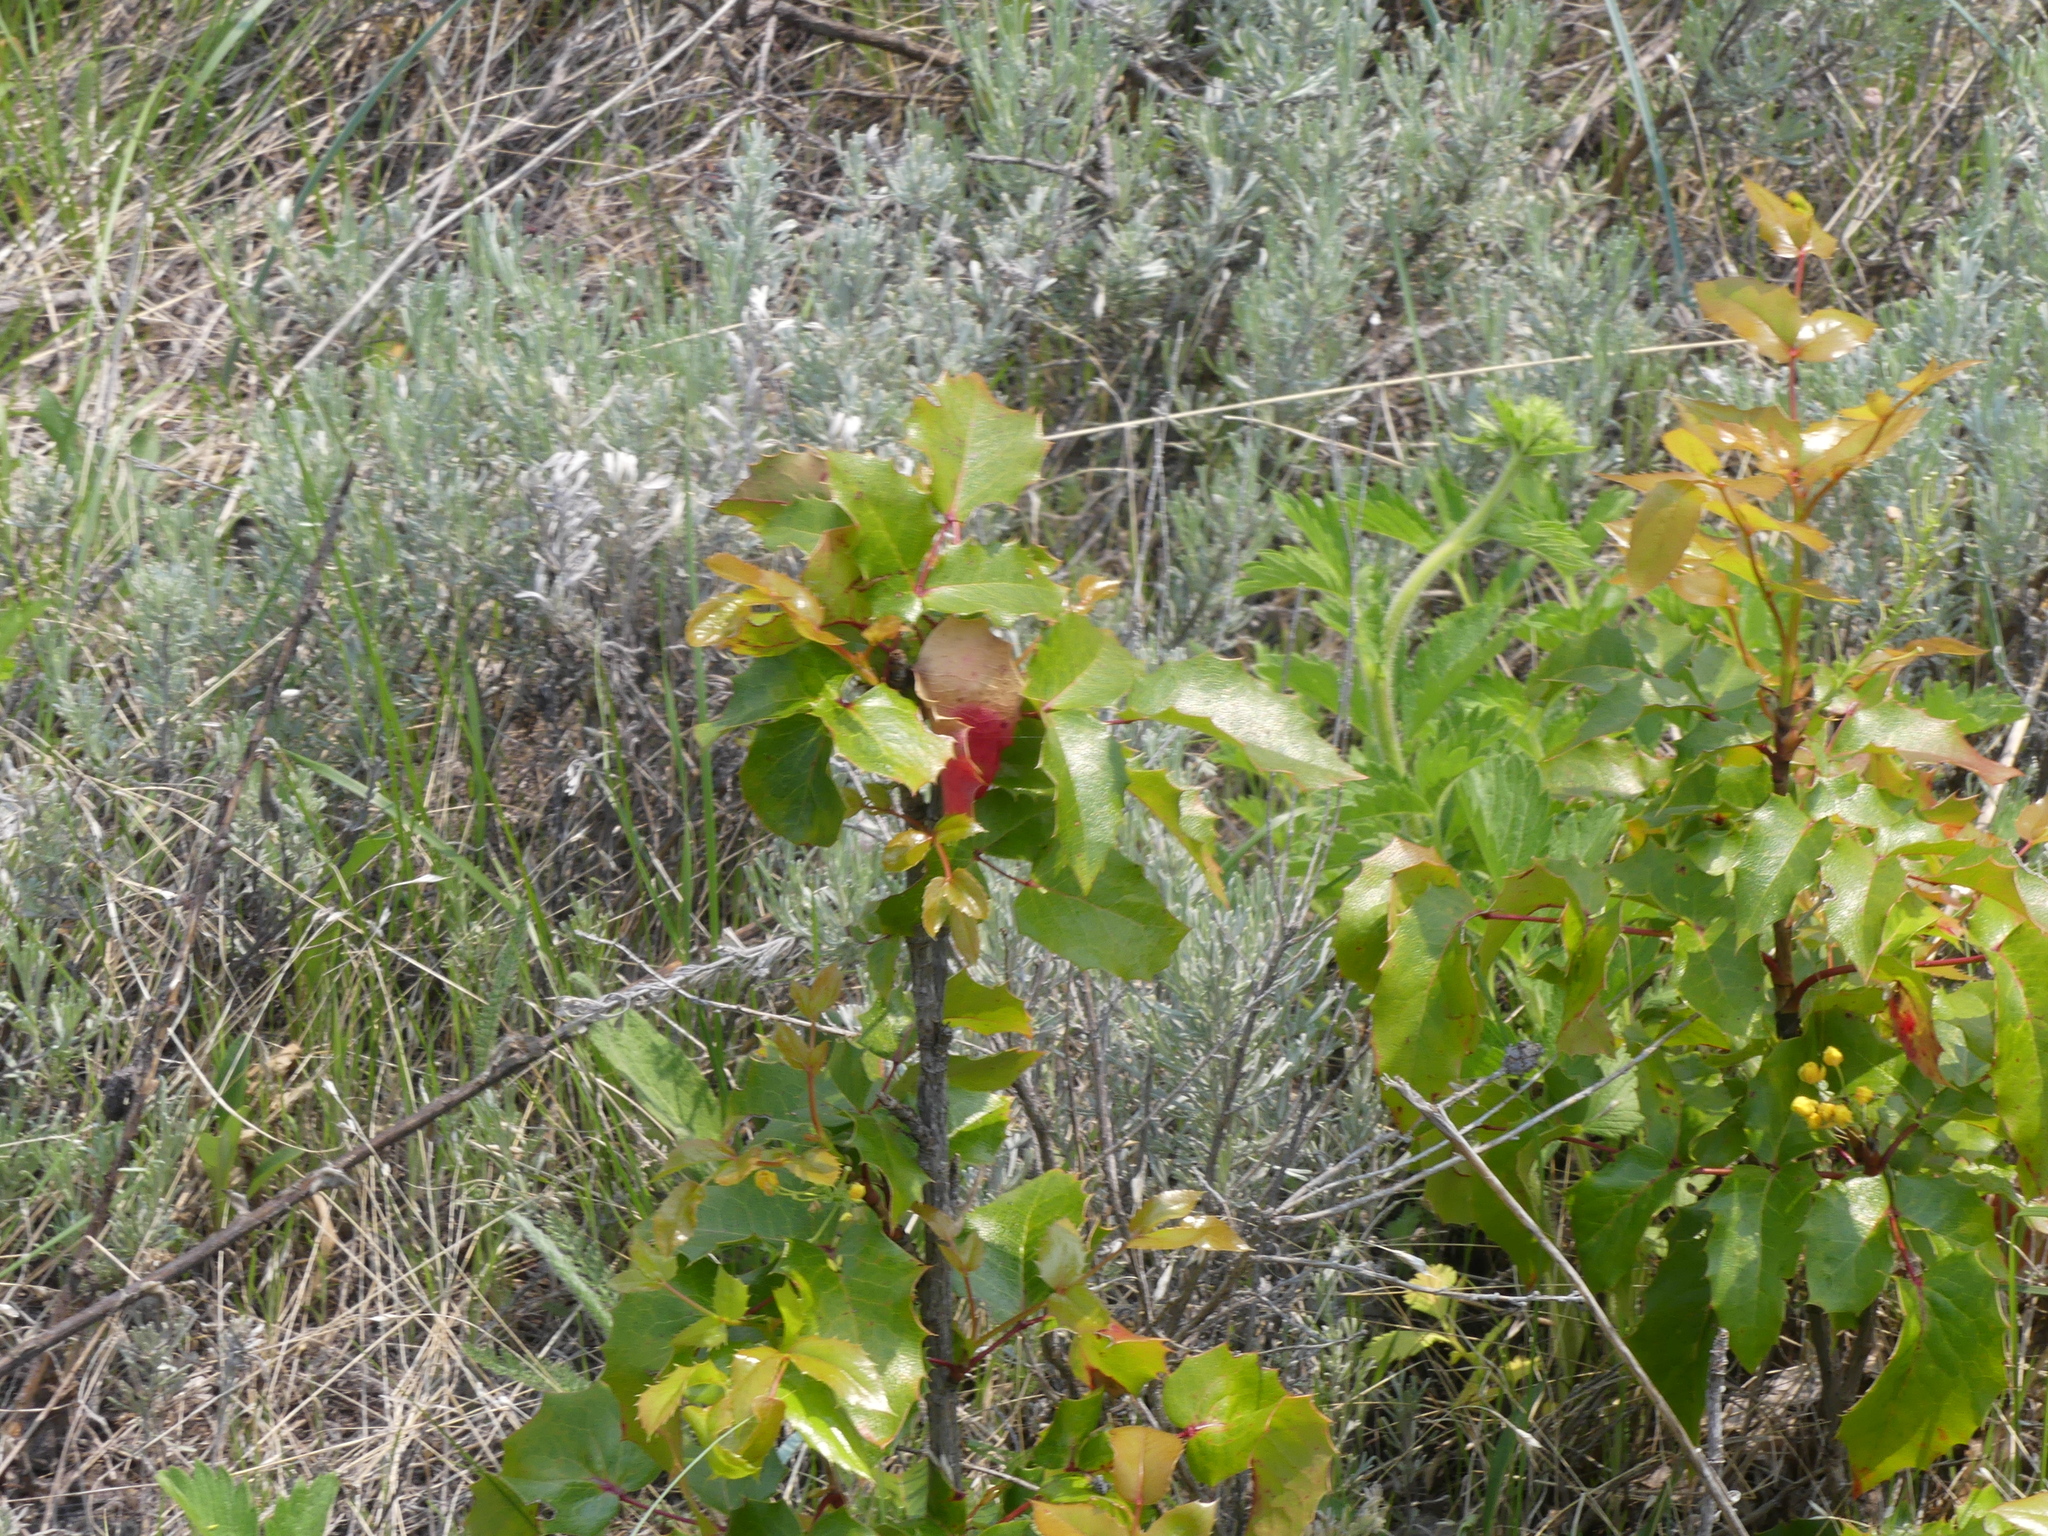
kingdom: Plantae
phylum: Tracheophyta
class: Magnoliopsida
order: Ranunculales
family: Berberidaceae
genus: Mahonia
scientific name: Mahonia aquifolium
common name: Oregon-grape
